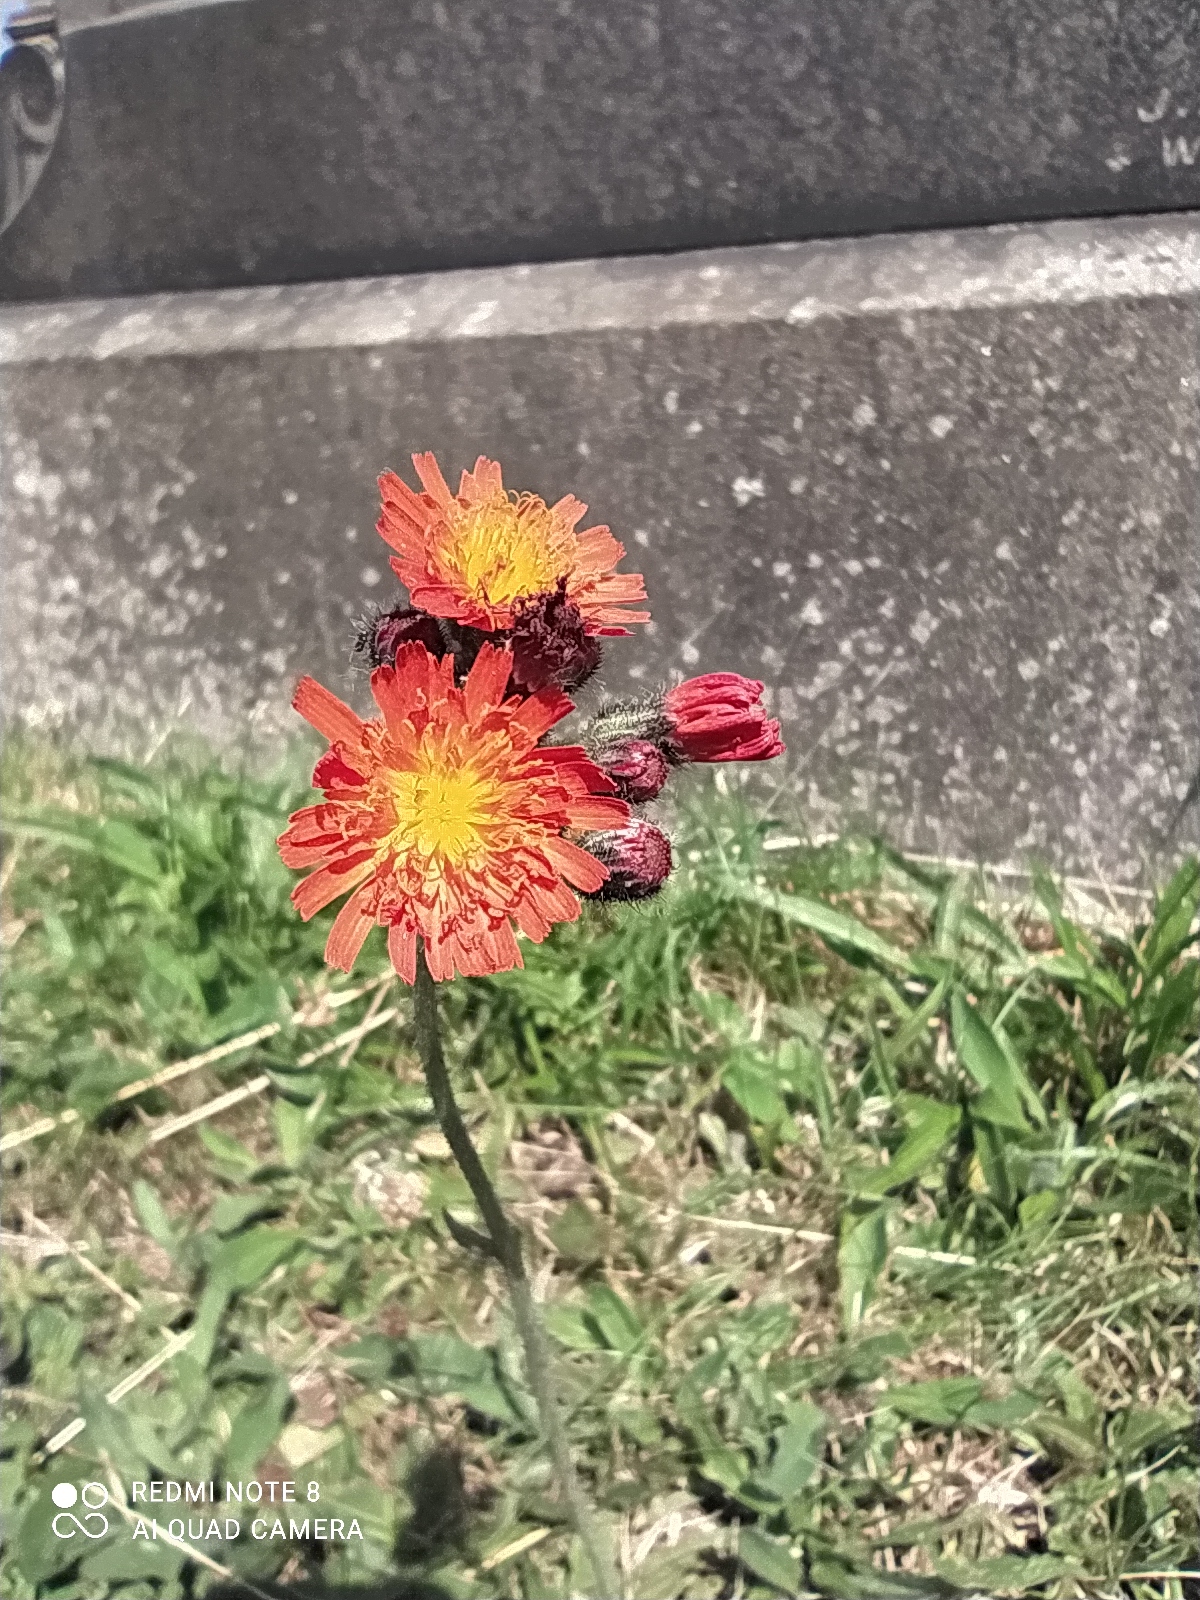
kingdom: Plantae
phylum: Tracheophyta
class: Magnoliopsida
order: Asterales
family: Asteraceae
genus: Pilosella
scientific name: Pilosella aurantiaca
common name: Fox-and-cubs
